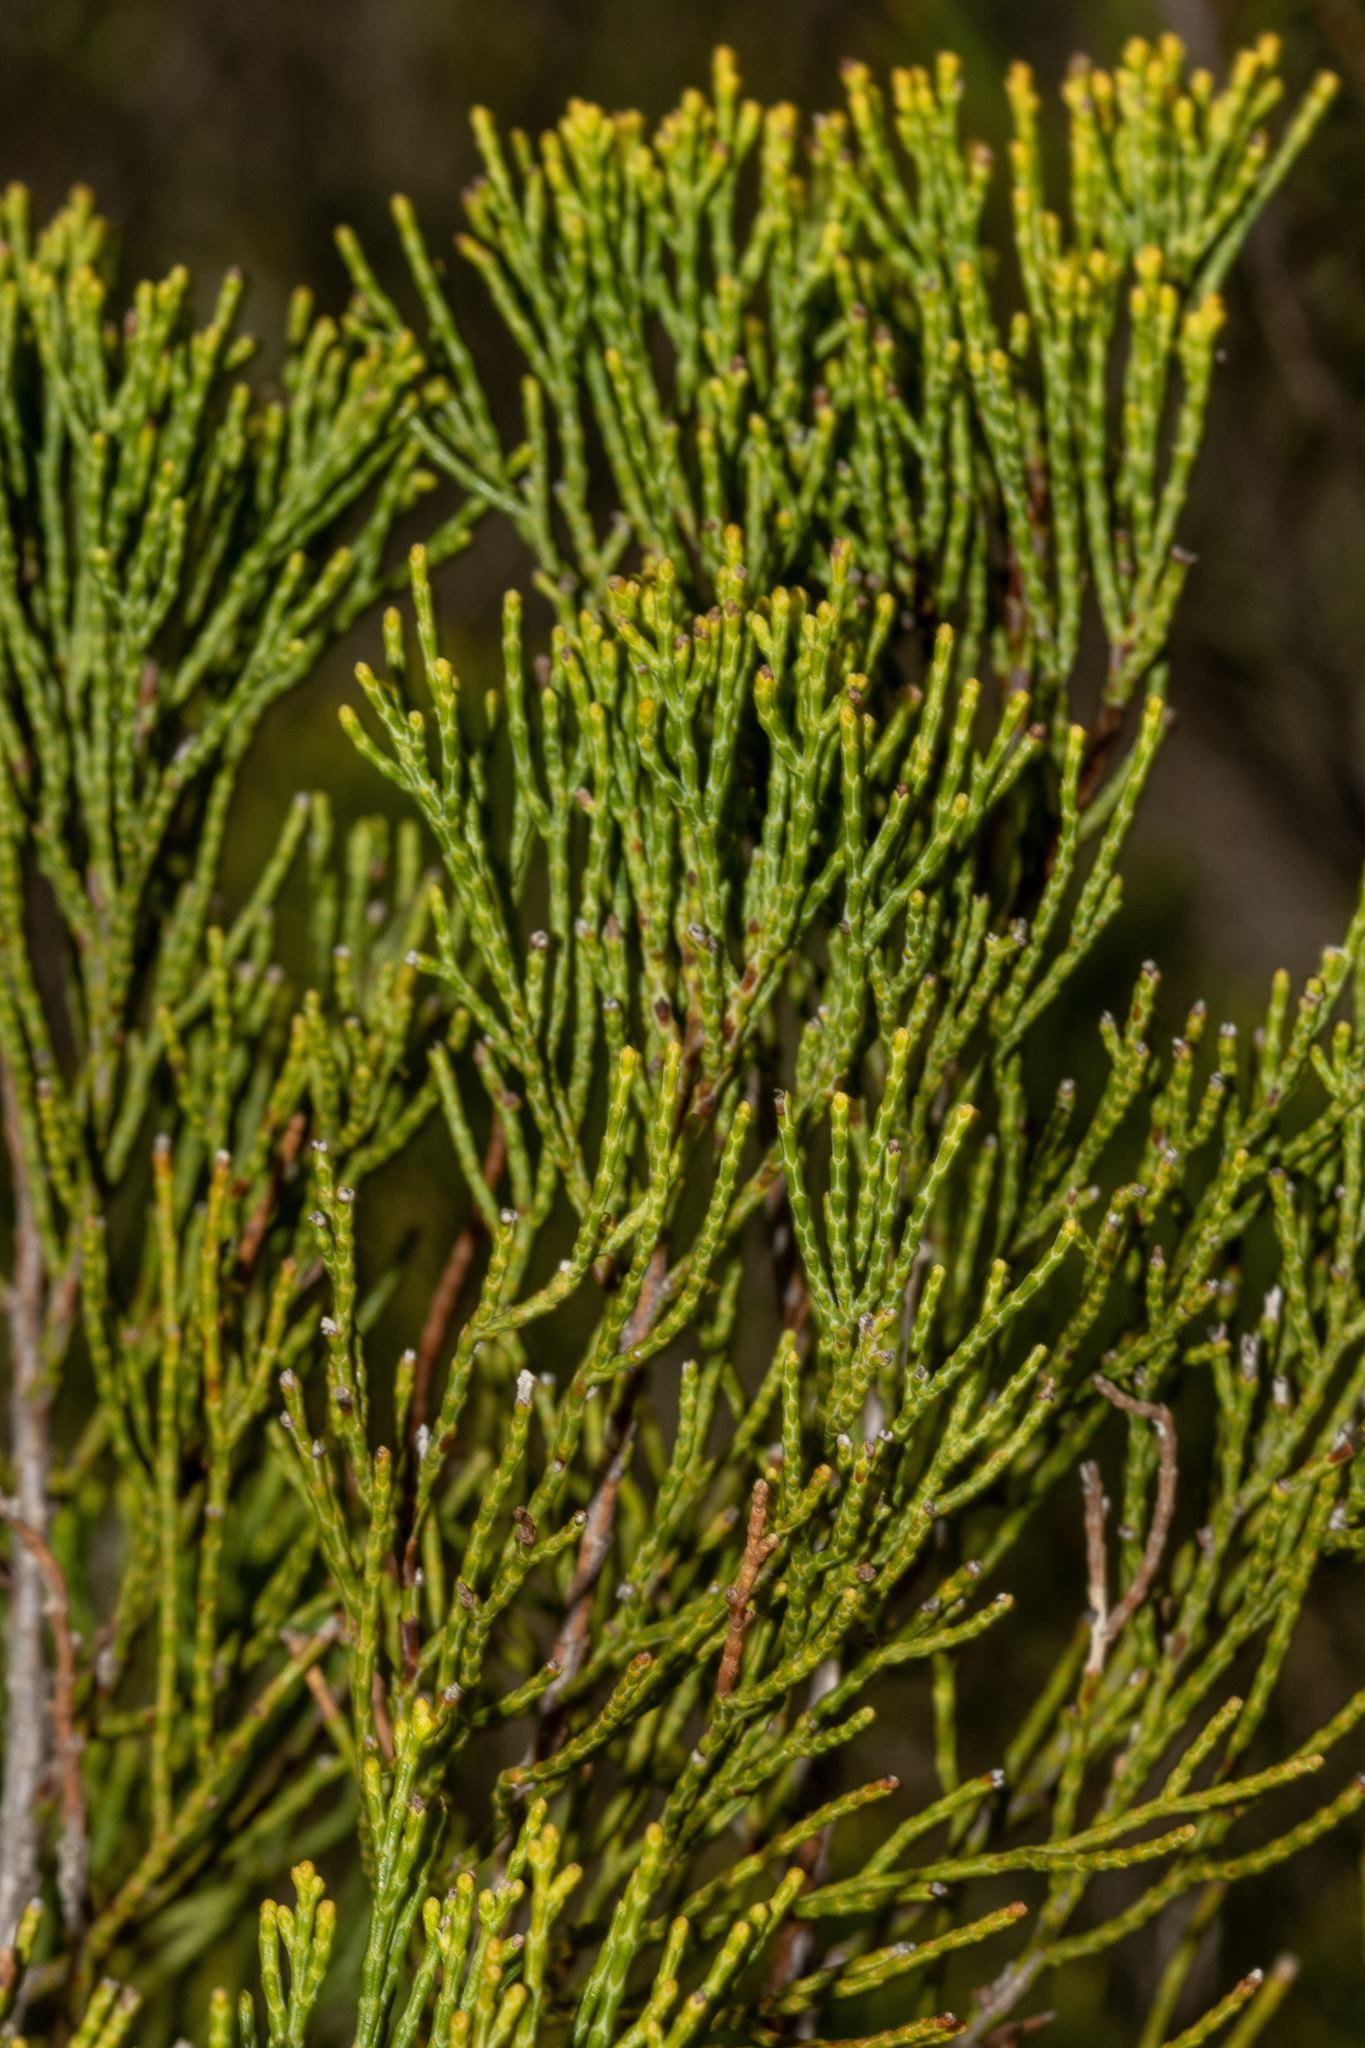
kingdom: Plantae
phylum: Tracheophyta
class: Pinopsida
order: Pinales
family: Cupressaceae
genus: Callitris
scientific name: Callitris verrucosa
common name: Scrub cypress-pine
